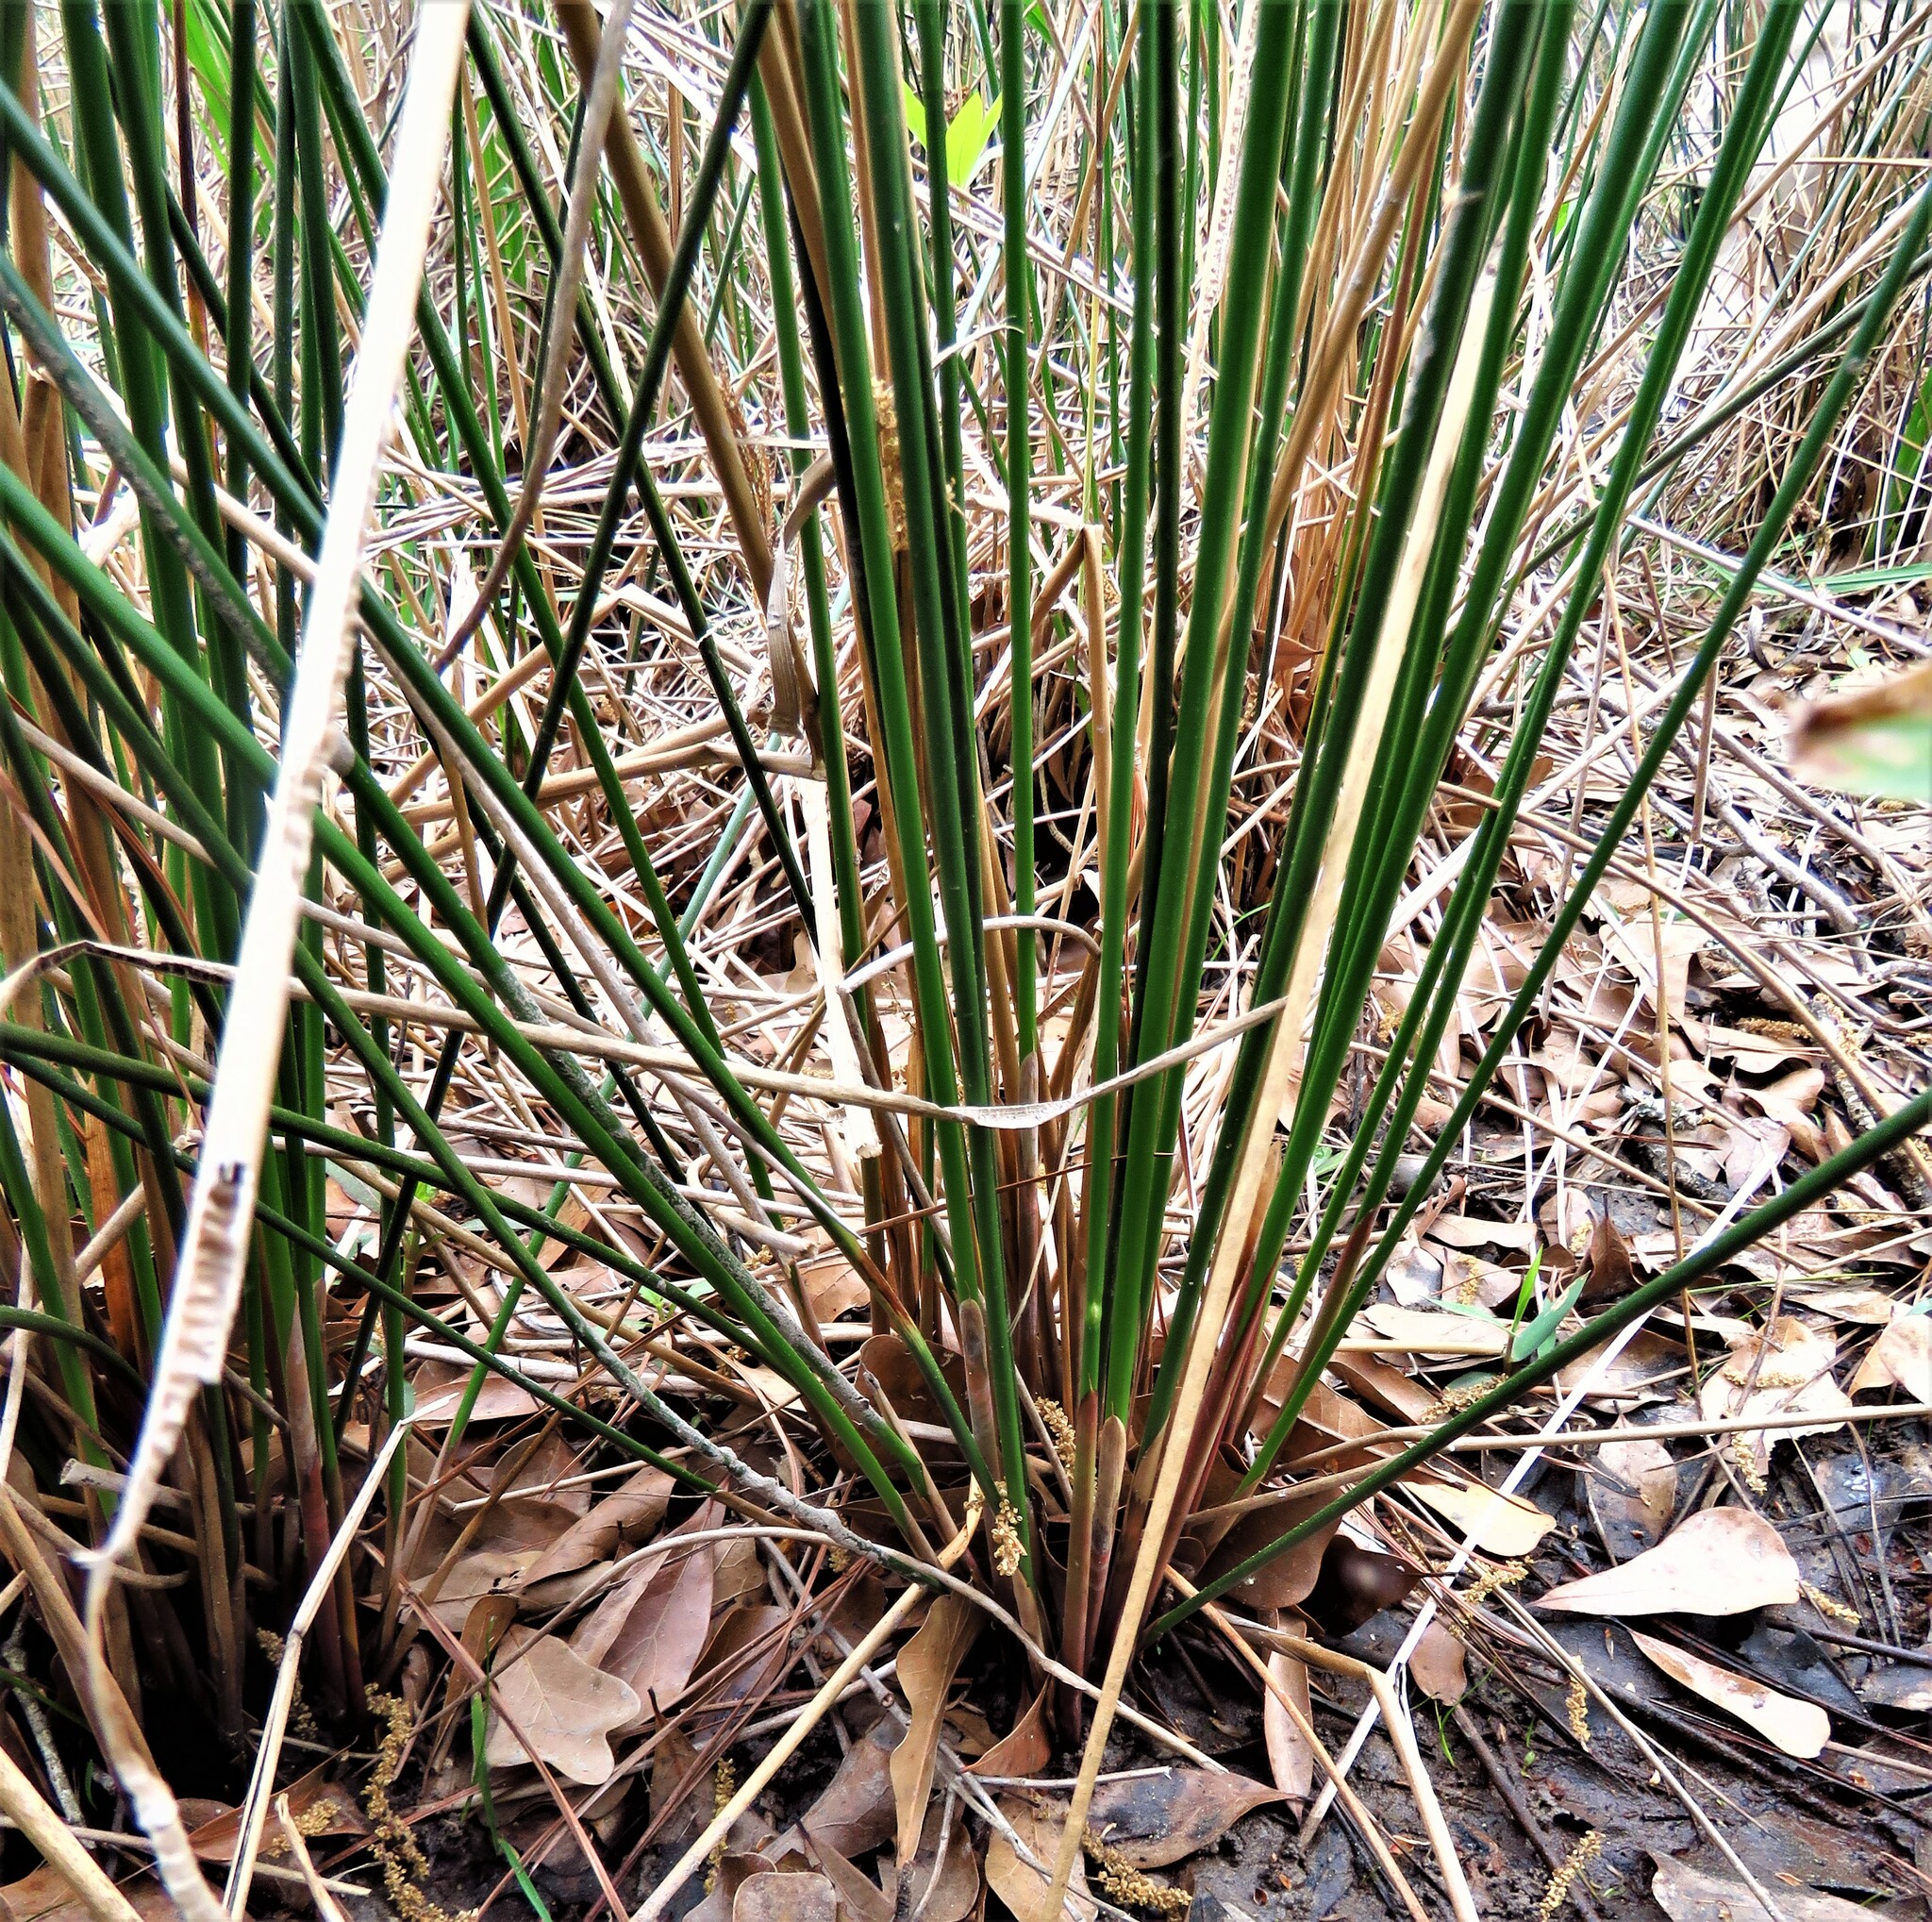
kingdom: Plantae
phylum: Tracheophyta
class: Liliopsida
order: Poales
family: Juncaceae
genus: Juncus
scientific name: Juncus effusus
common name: Soft rush
